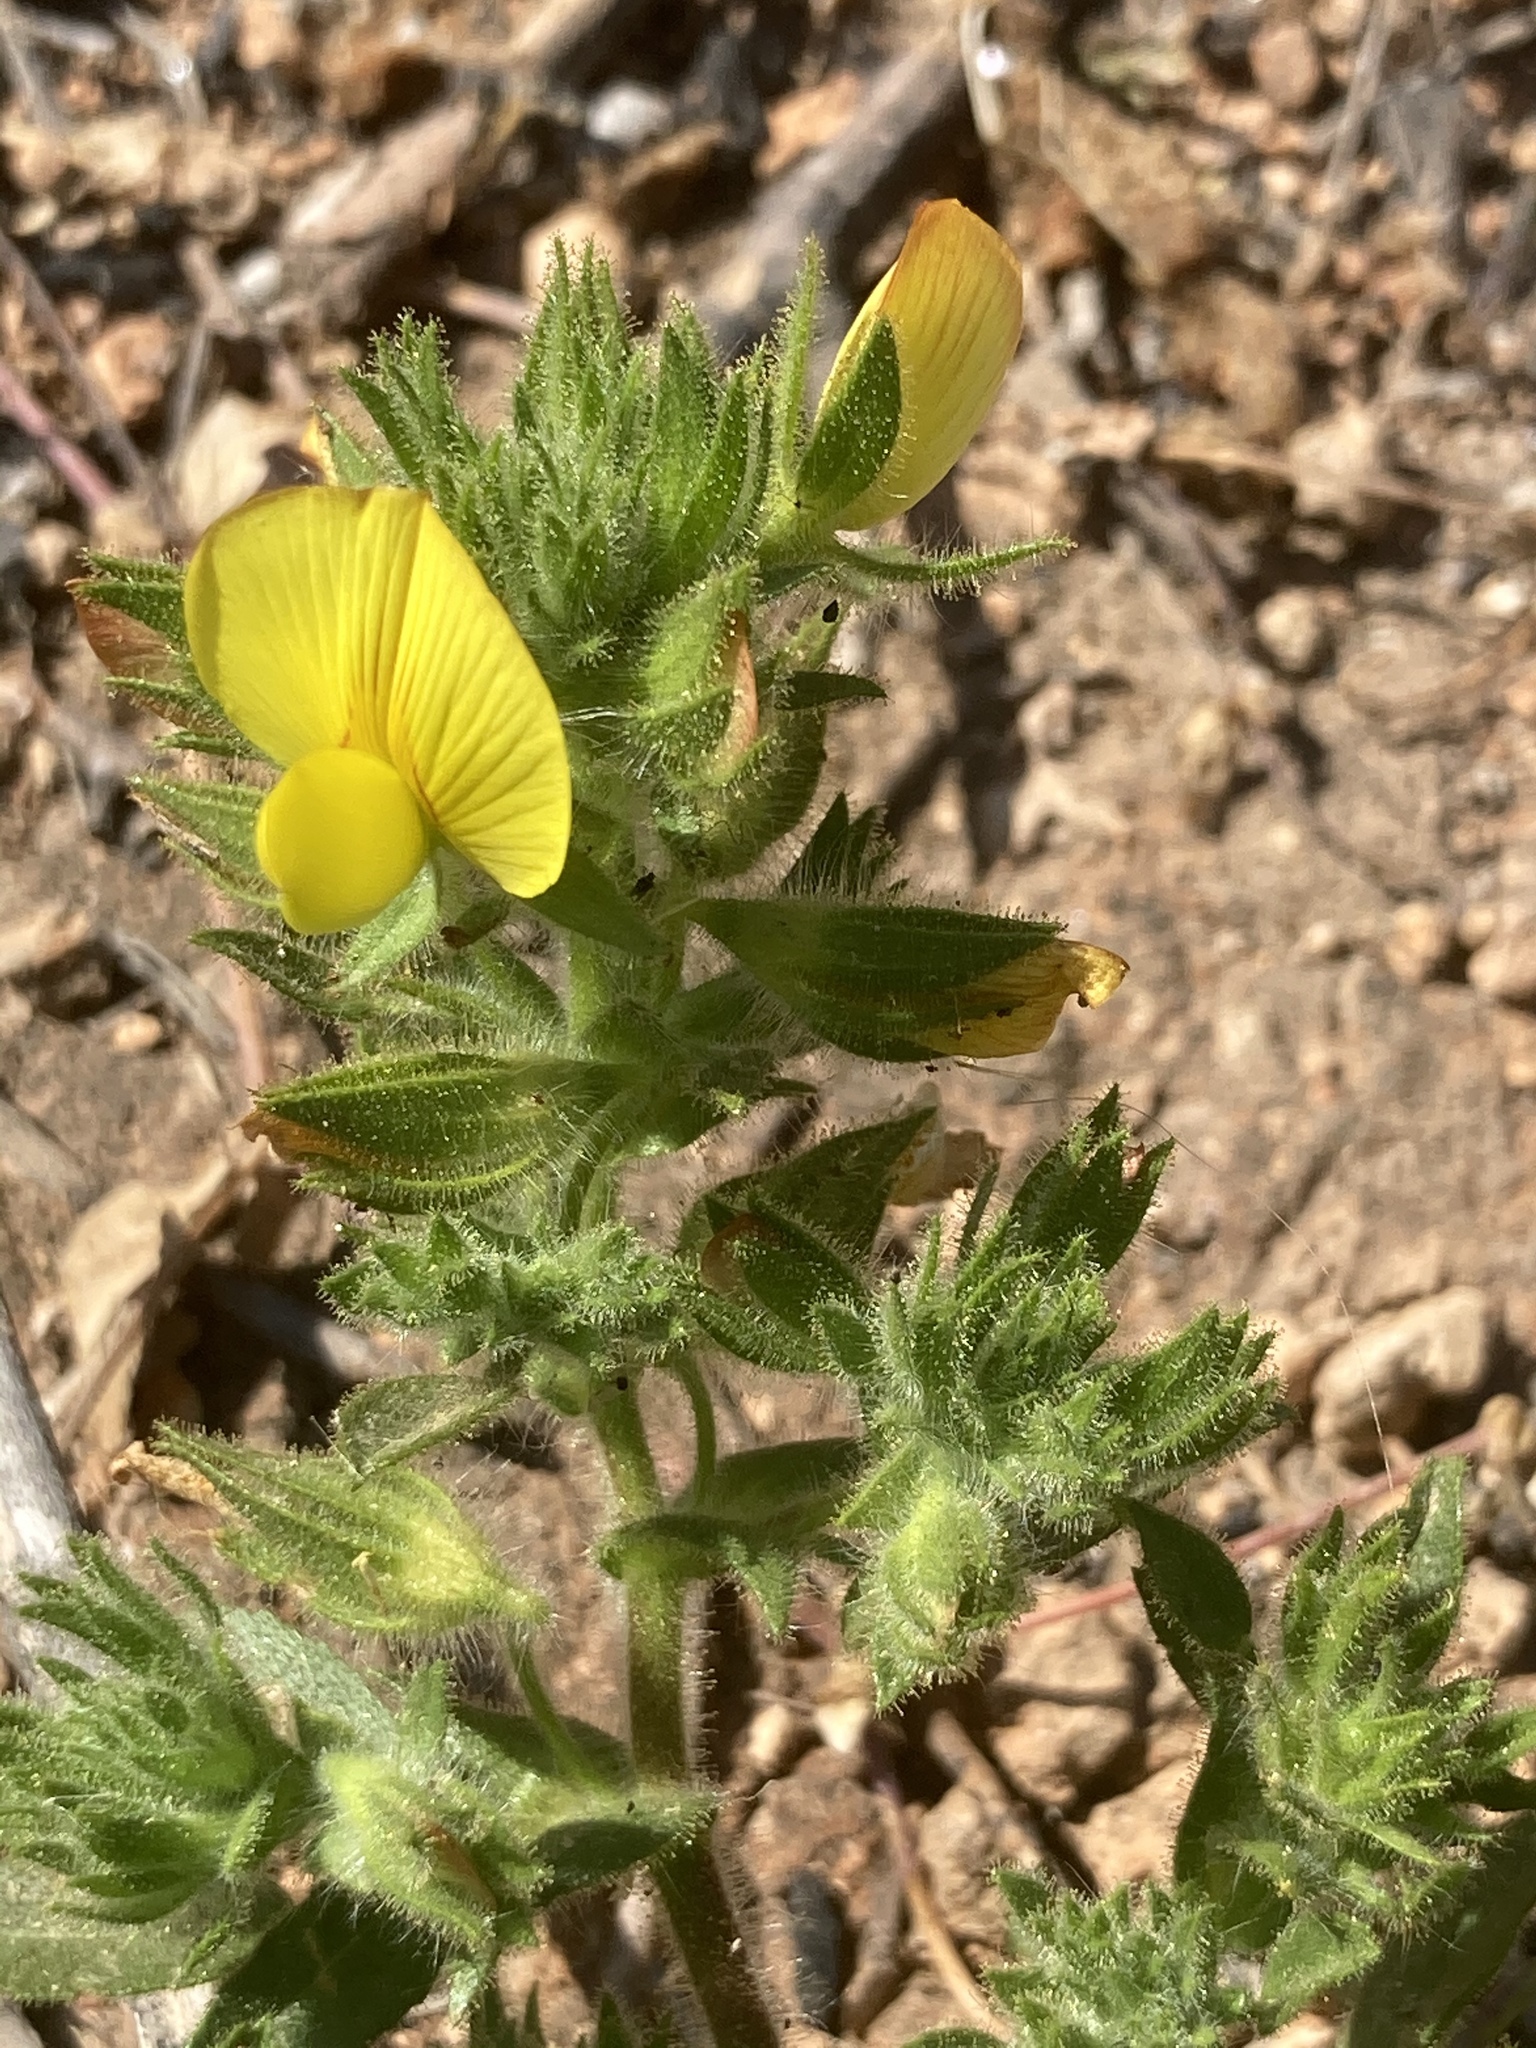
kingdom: Plantae
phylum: Tracheophyta
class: Magnoliopsida
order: Fabales
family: Fabaceae
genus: Ononis
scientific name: Ononis pubescens
